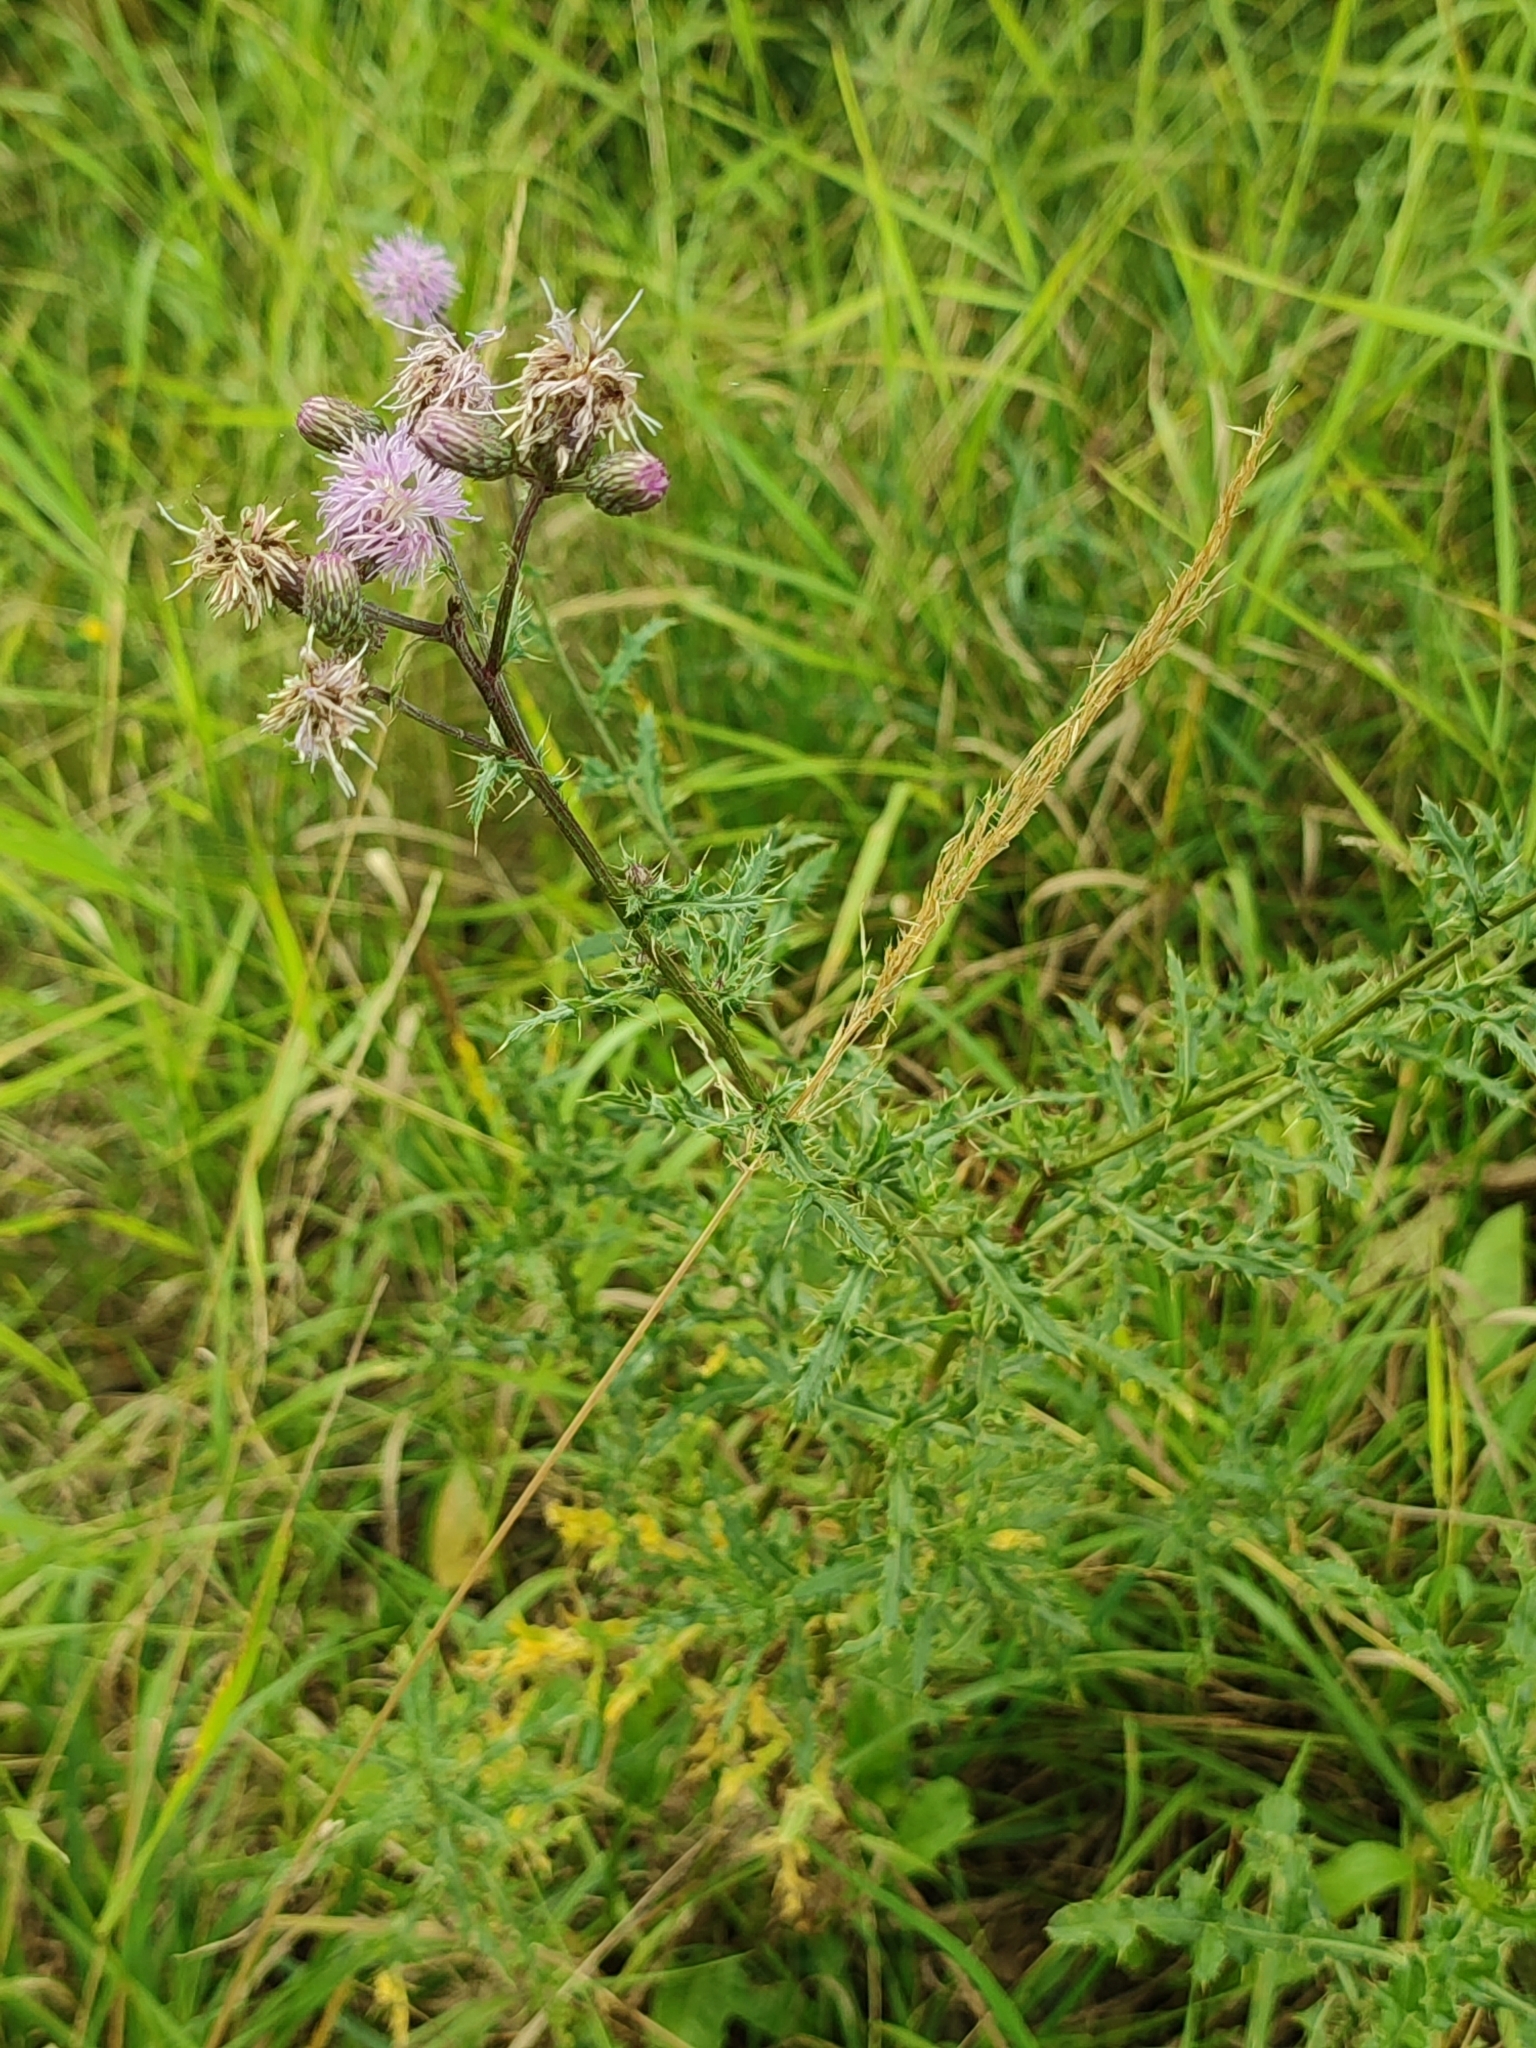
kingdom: Plantae
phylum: Tracheophyta
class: Magnoliopsida
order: Asterales
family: Asteraceae
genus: Cirsium
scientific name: Cirsium arvense
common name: Creeping thistle
